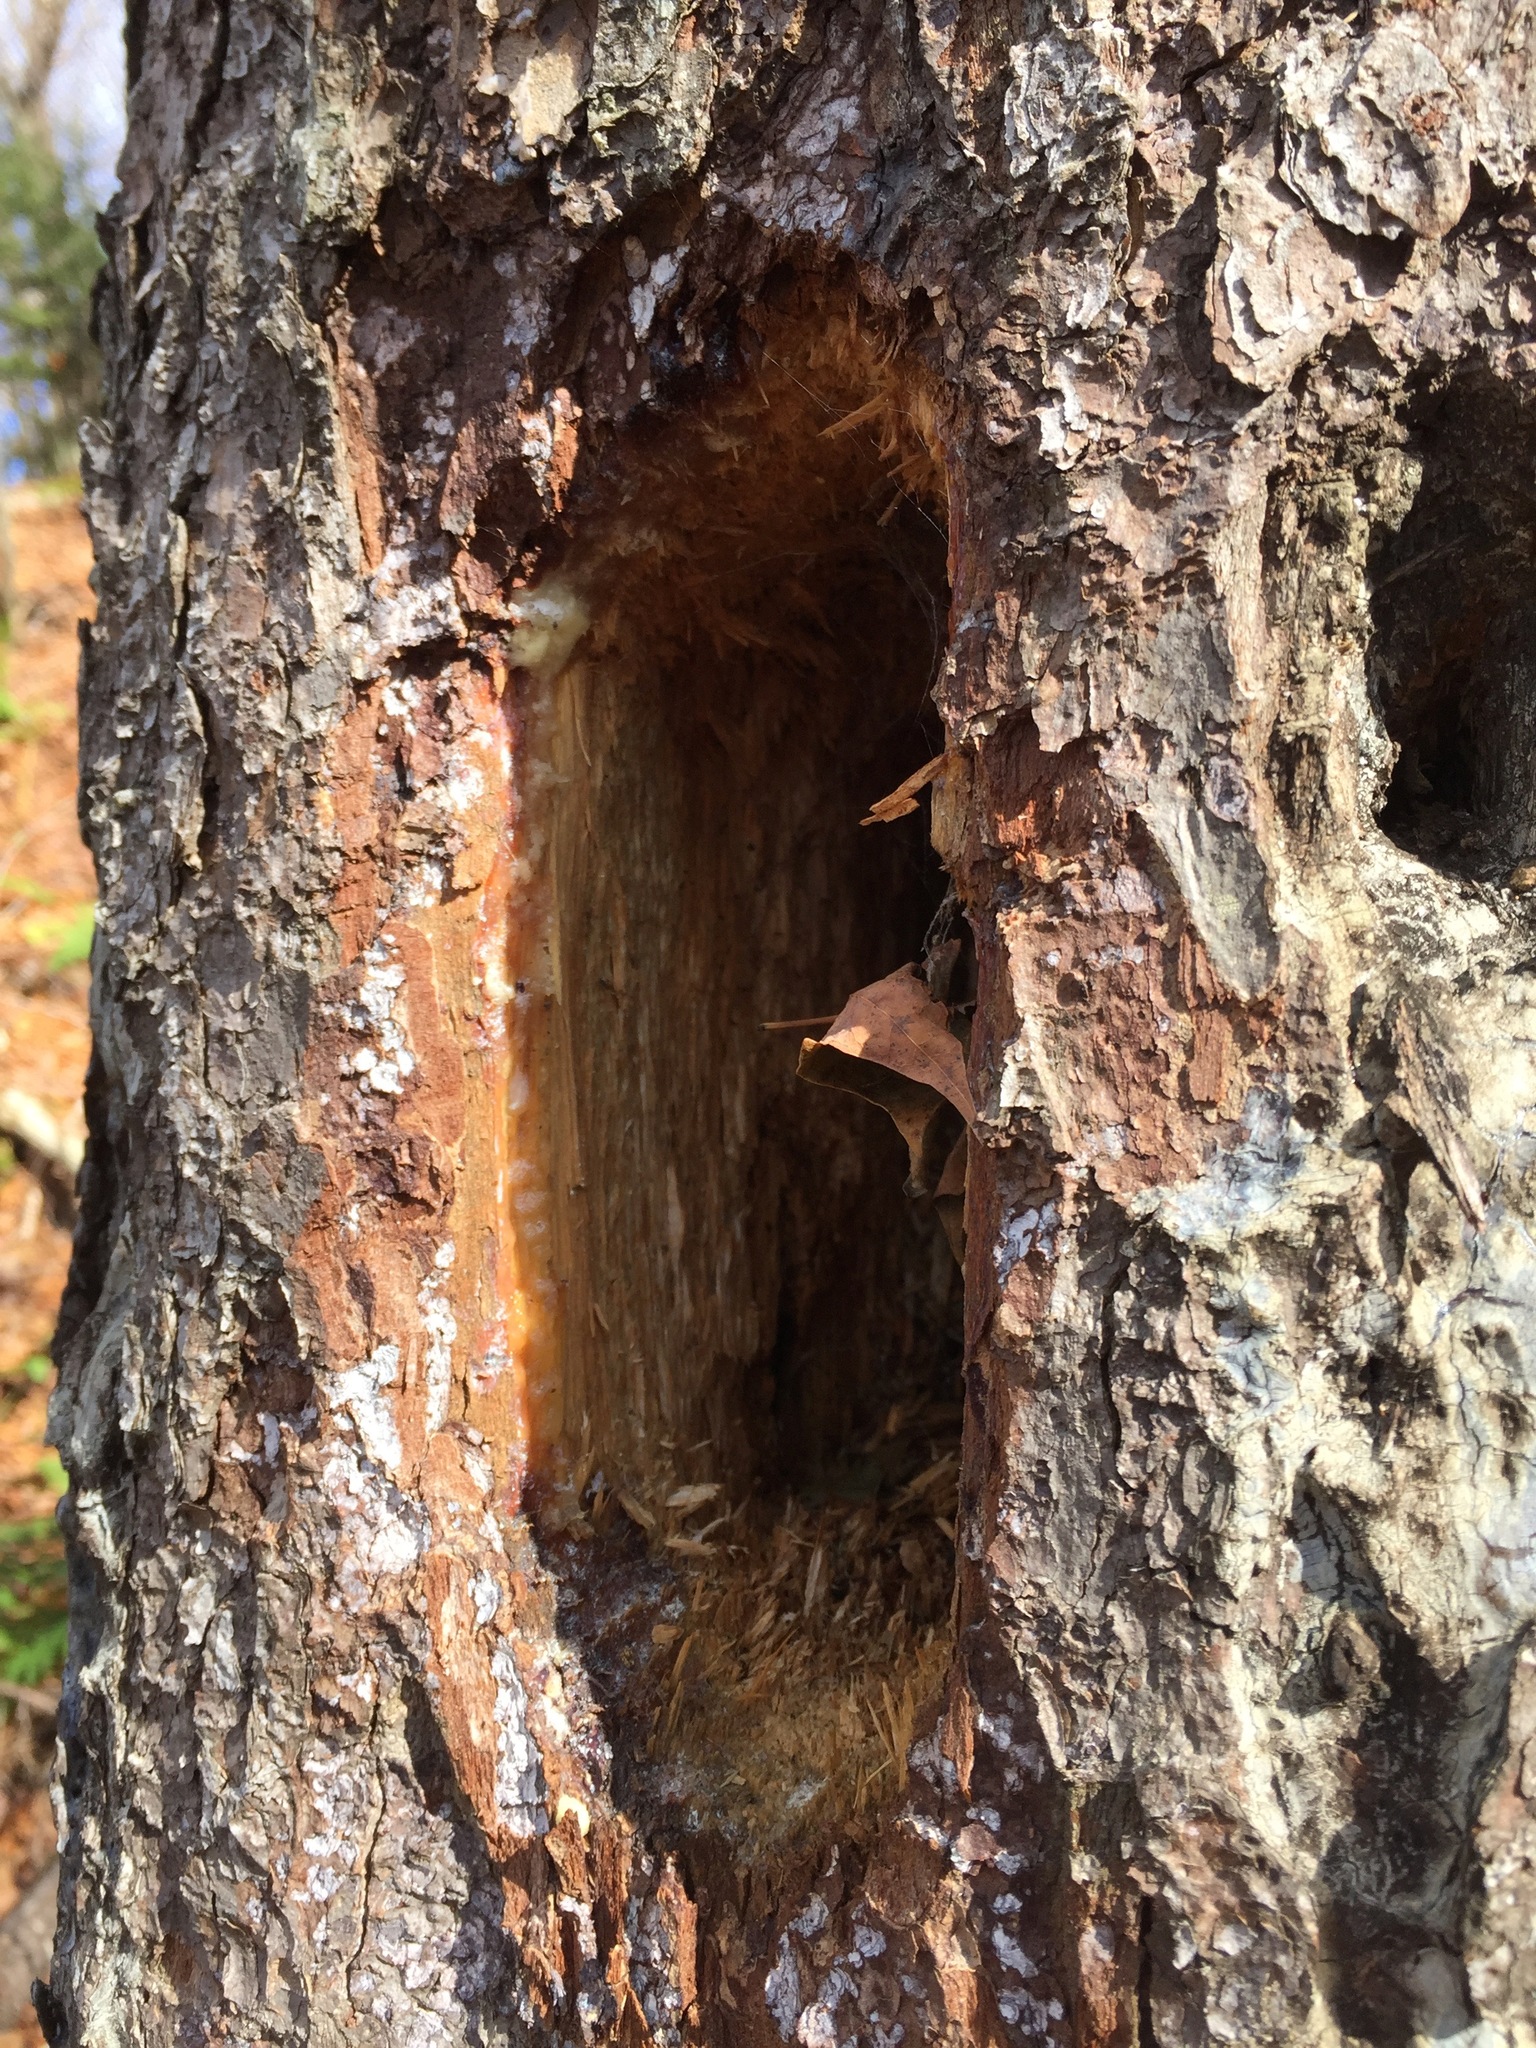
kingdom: Animalia
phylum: Chordata
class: Aves
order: Piciformes
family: Picidae
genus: Dryocopus
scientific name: Dryocopus pileatus
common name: Pileated woodpecker
